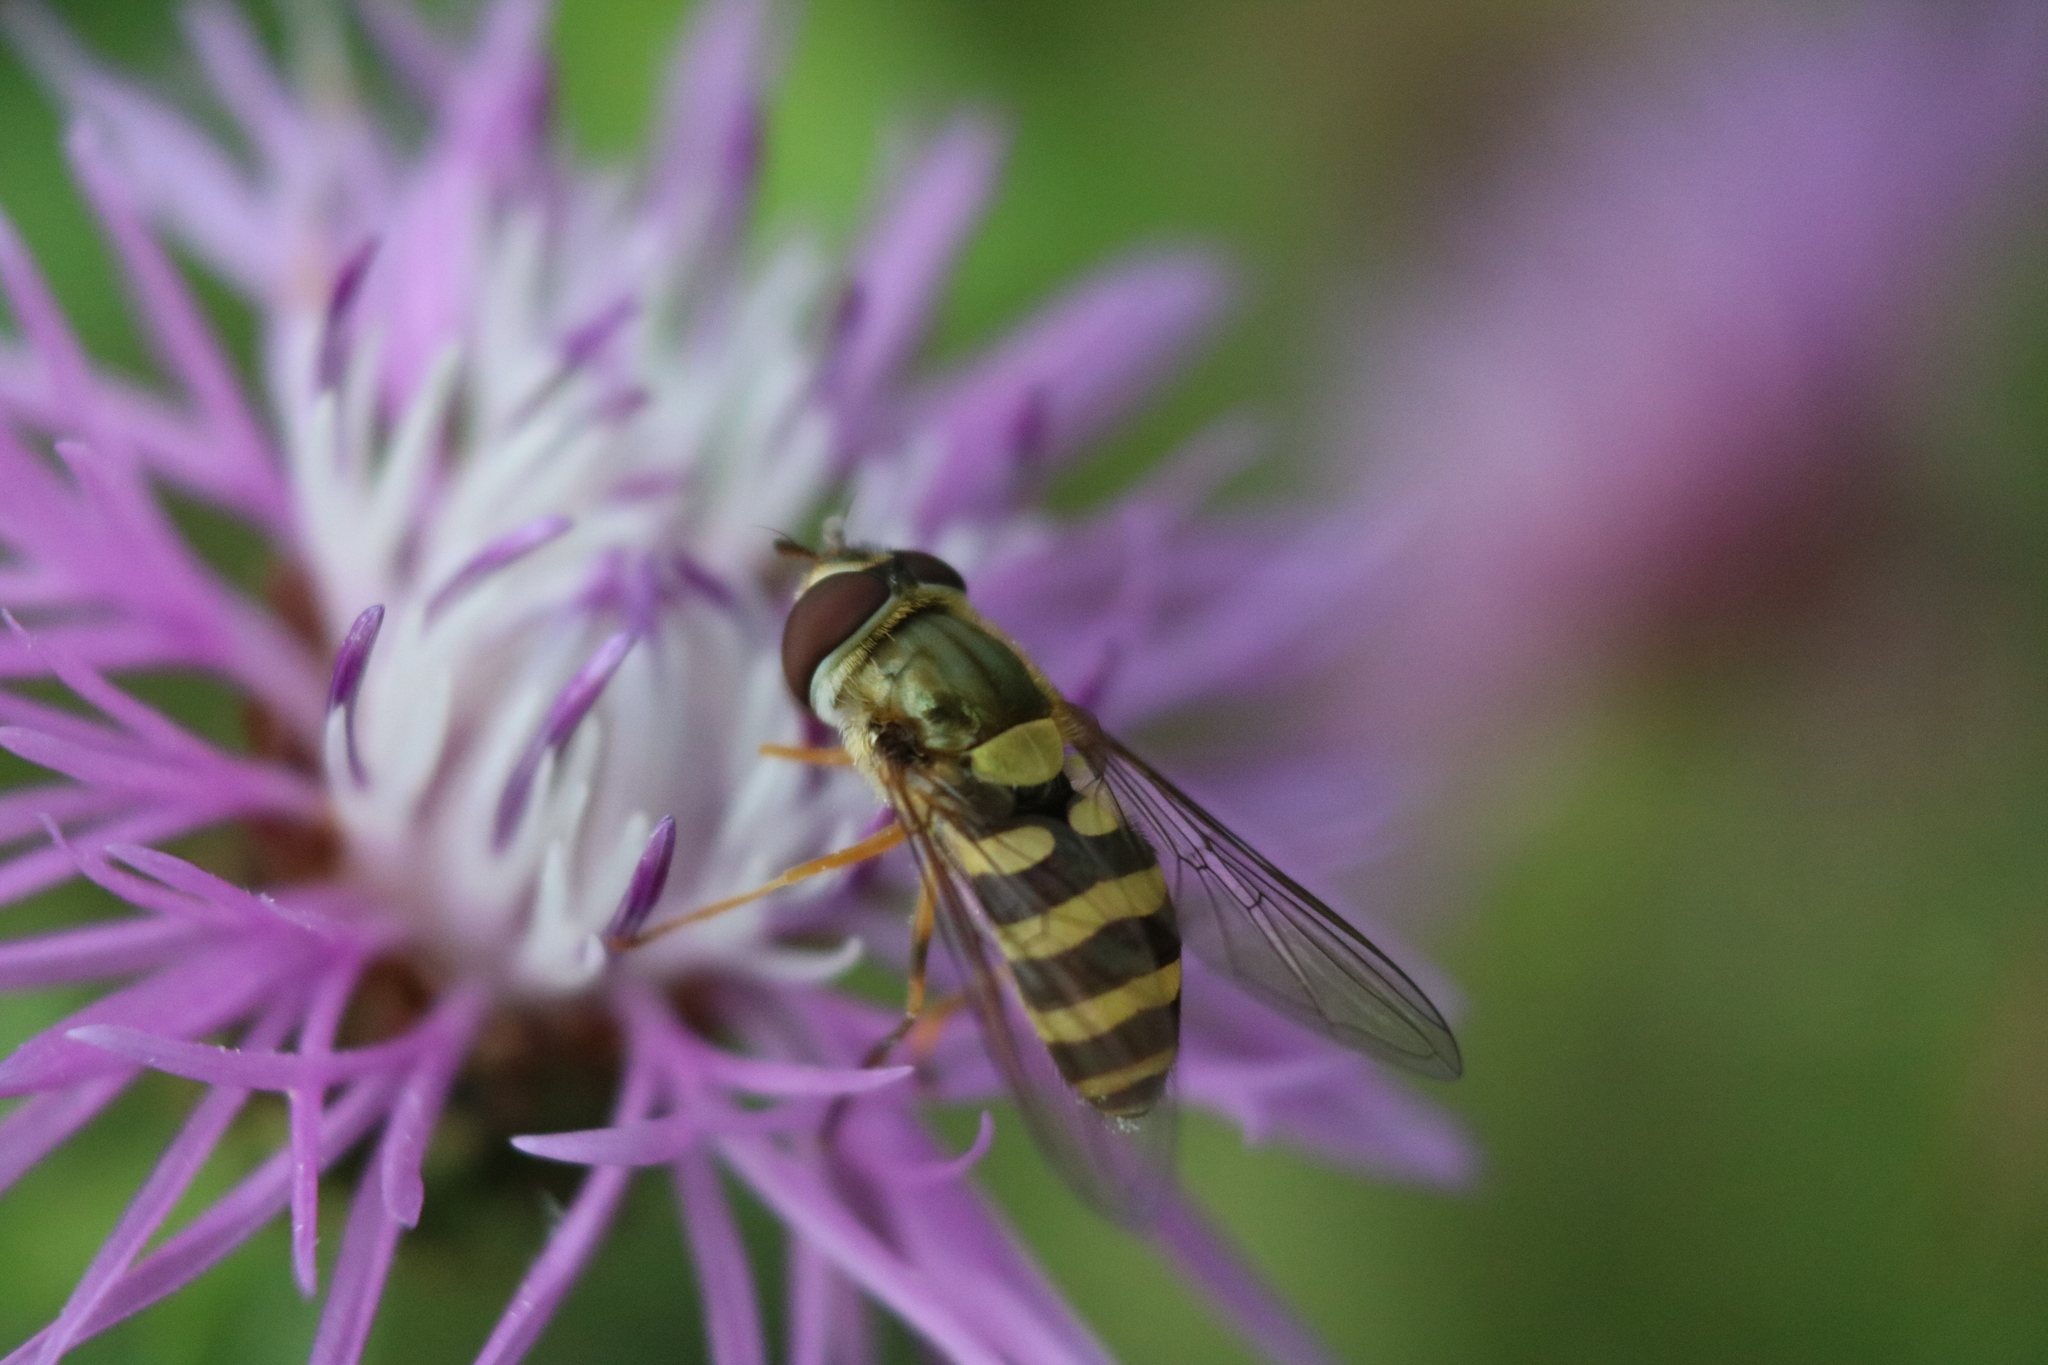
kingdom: Animalia
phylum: Arthropoda
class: Insecta
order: Diptera
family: Syrphidae
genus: Syrphus
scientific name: Syrphus rectus
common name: Yellow-legged flower fly
